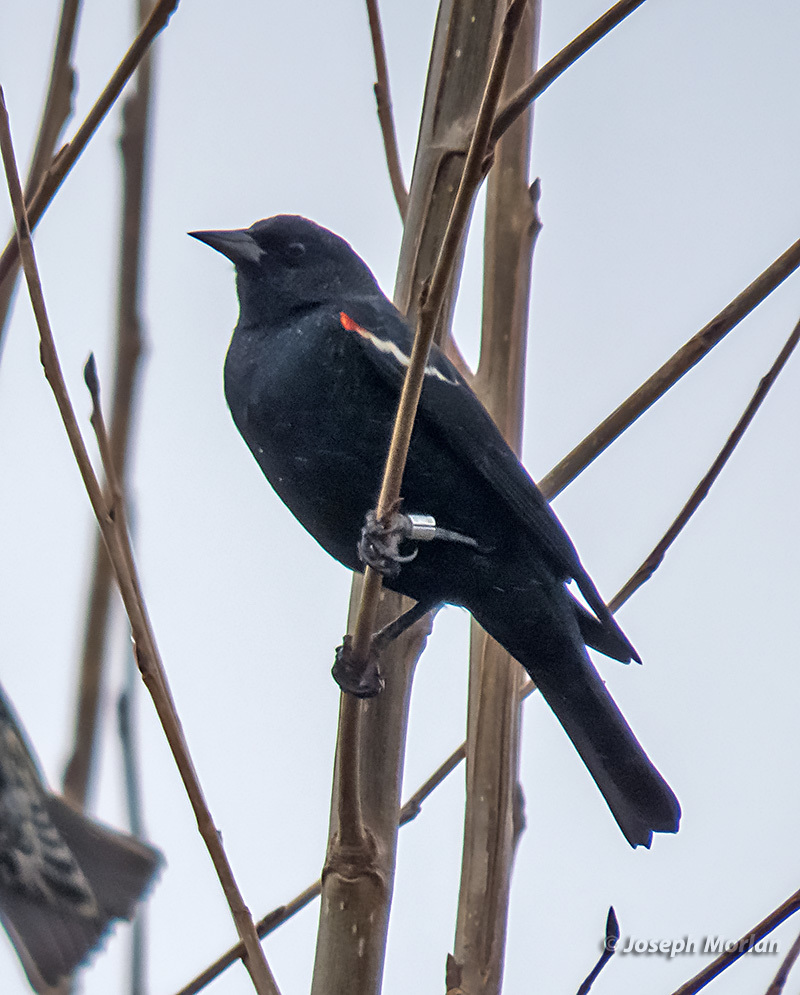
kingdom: Animalia
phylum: Chordata
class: Aves
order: Passeriformes
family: Icteridae
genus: Agelaius
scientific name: Agelaius tricolor
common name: Tricolored blackbird
